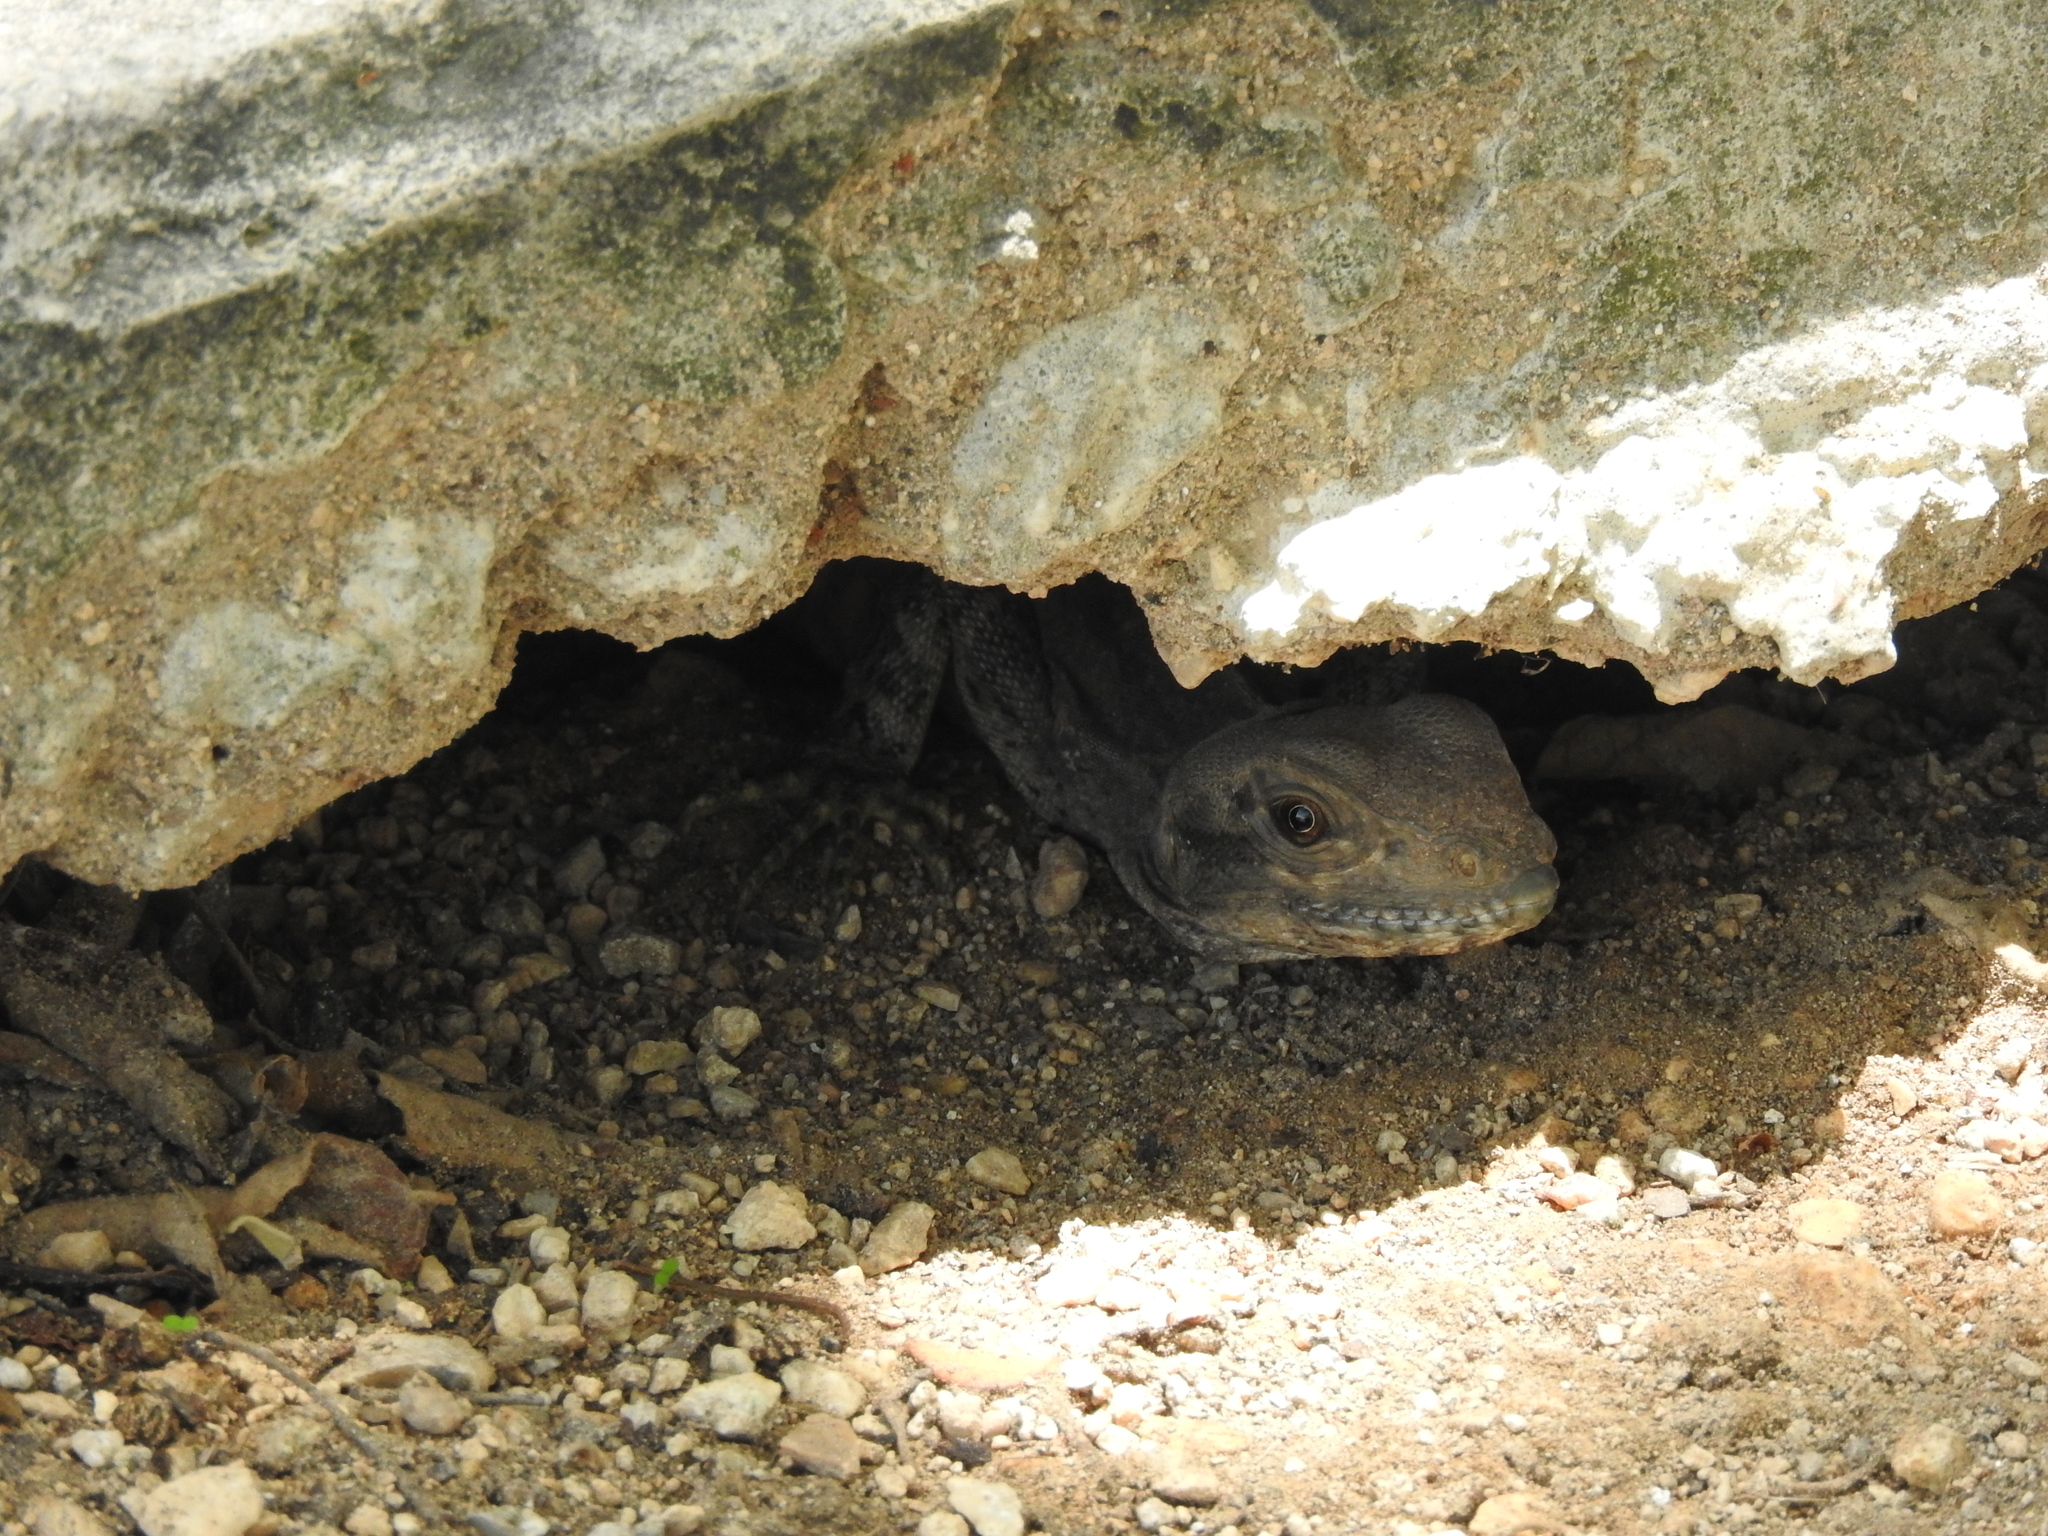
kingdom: Animalia
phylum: Chordata
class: Squamata
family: Iguanidae
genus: Ctenosaura
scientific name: Ctenosaura similis
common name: Black spiny-tailed iguana
